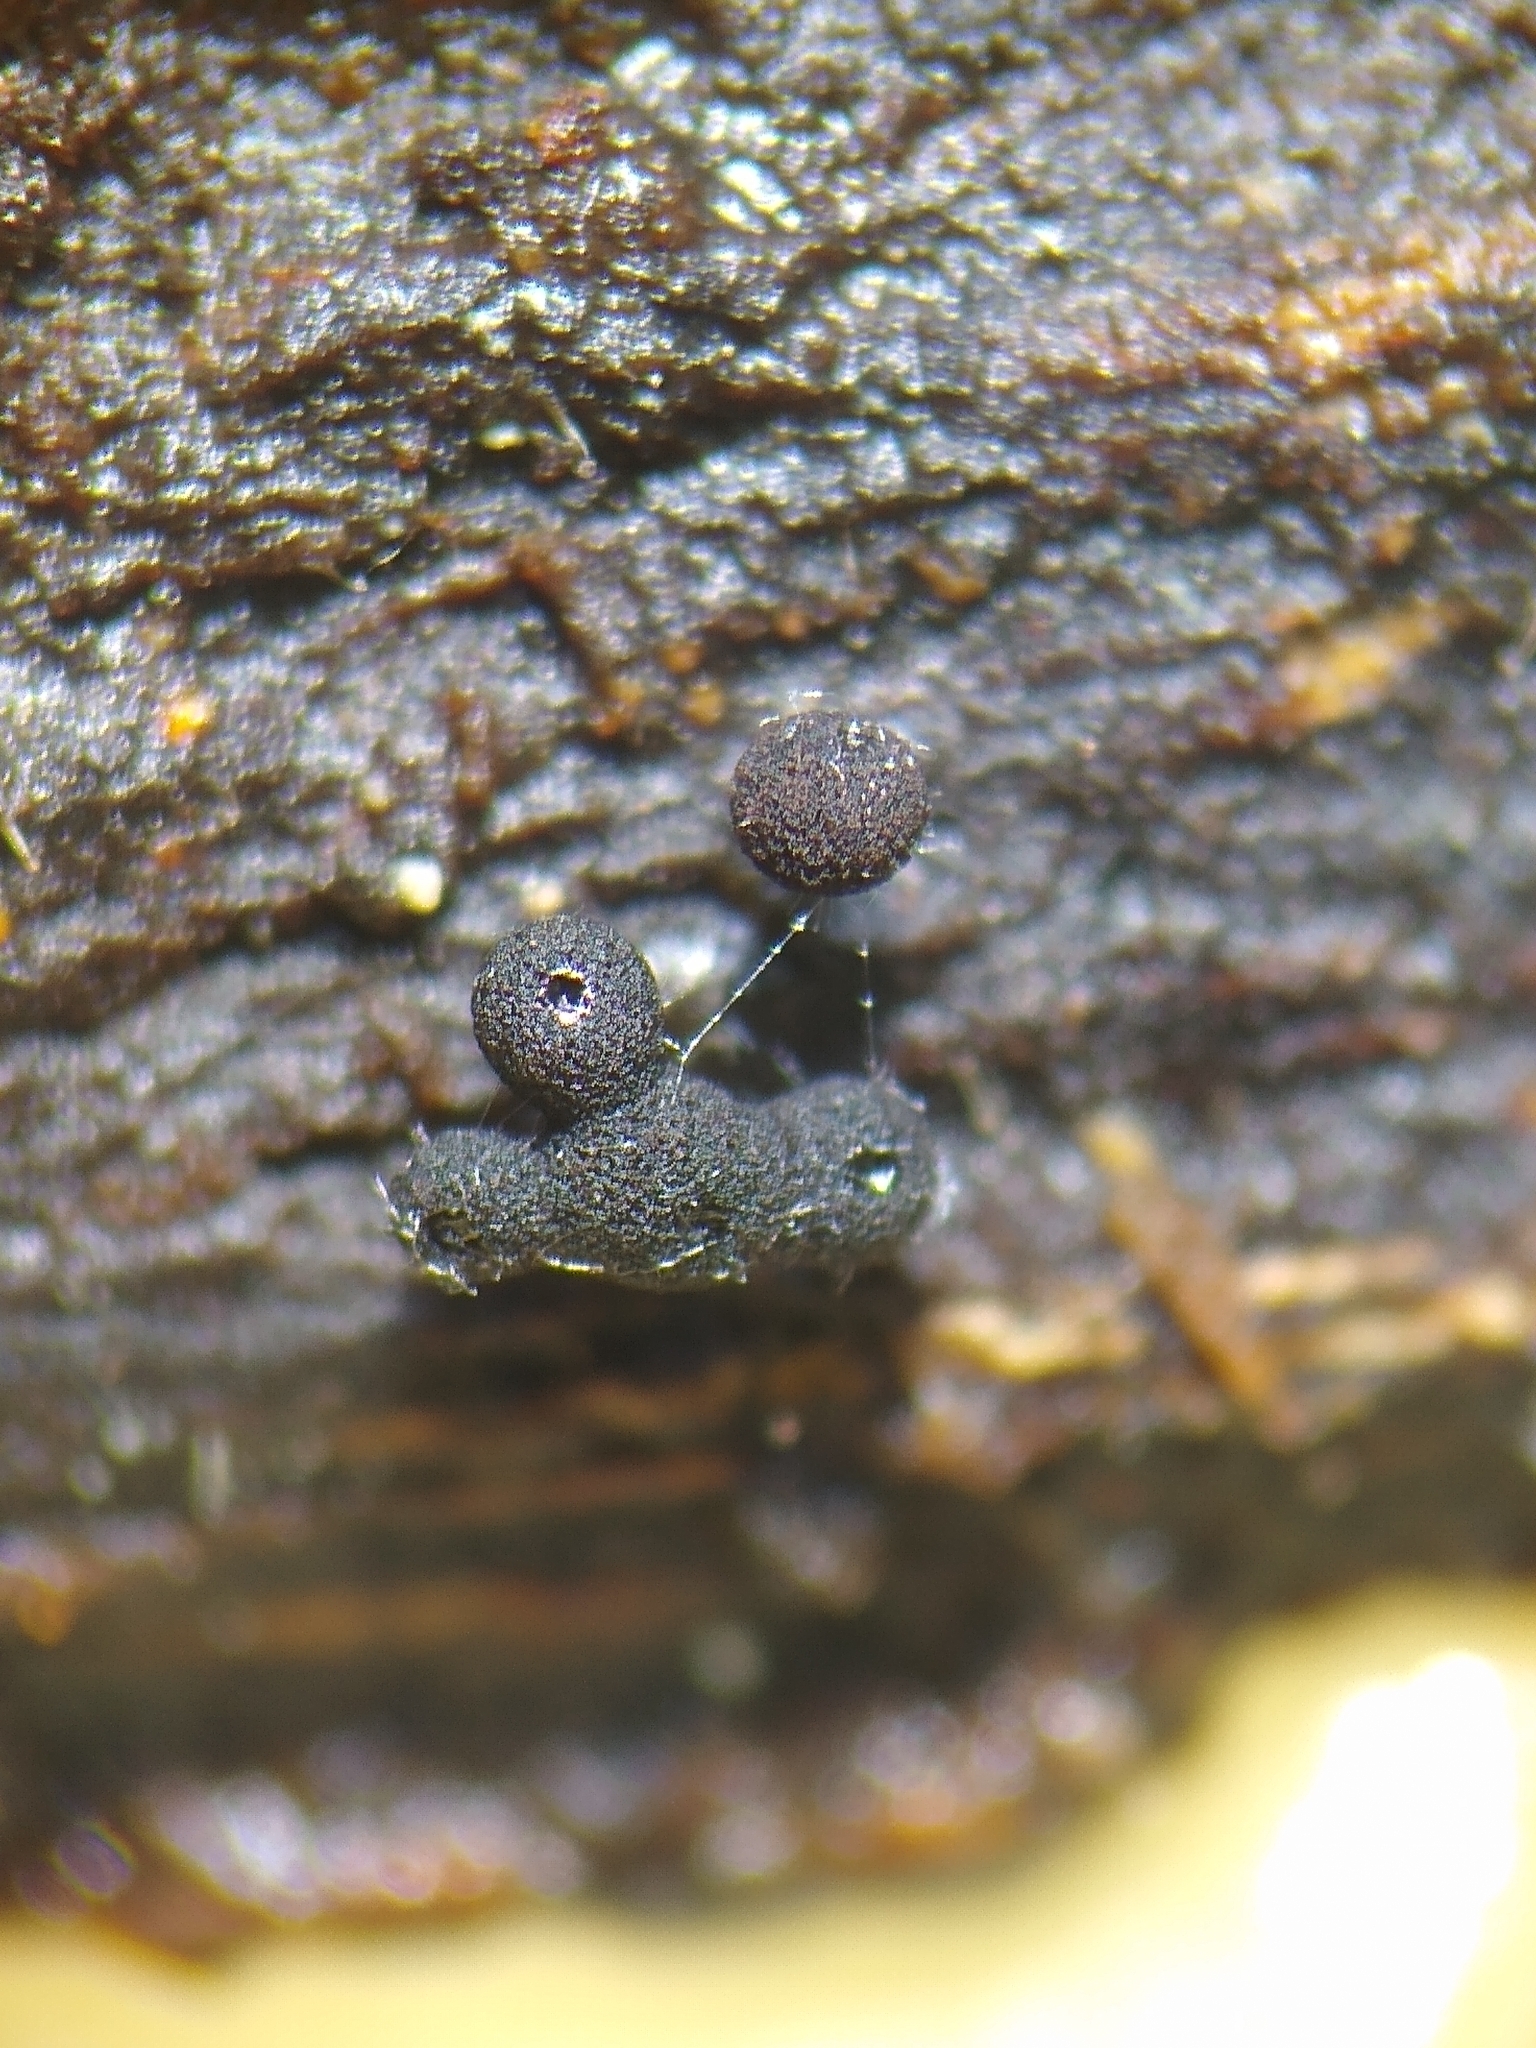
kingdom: Protozoa
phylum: Mycetozoa
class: Myxomycetes
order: Stemonitidales
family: Stemonitidaceae
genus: Enerthenema
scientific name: Enerthenema papillatum
